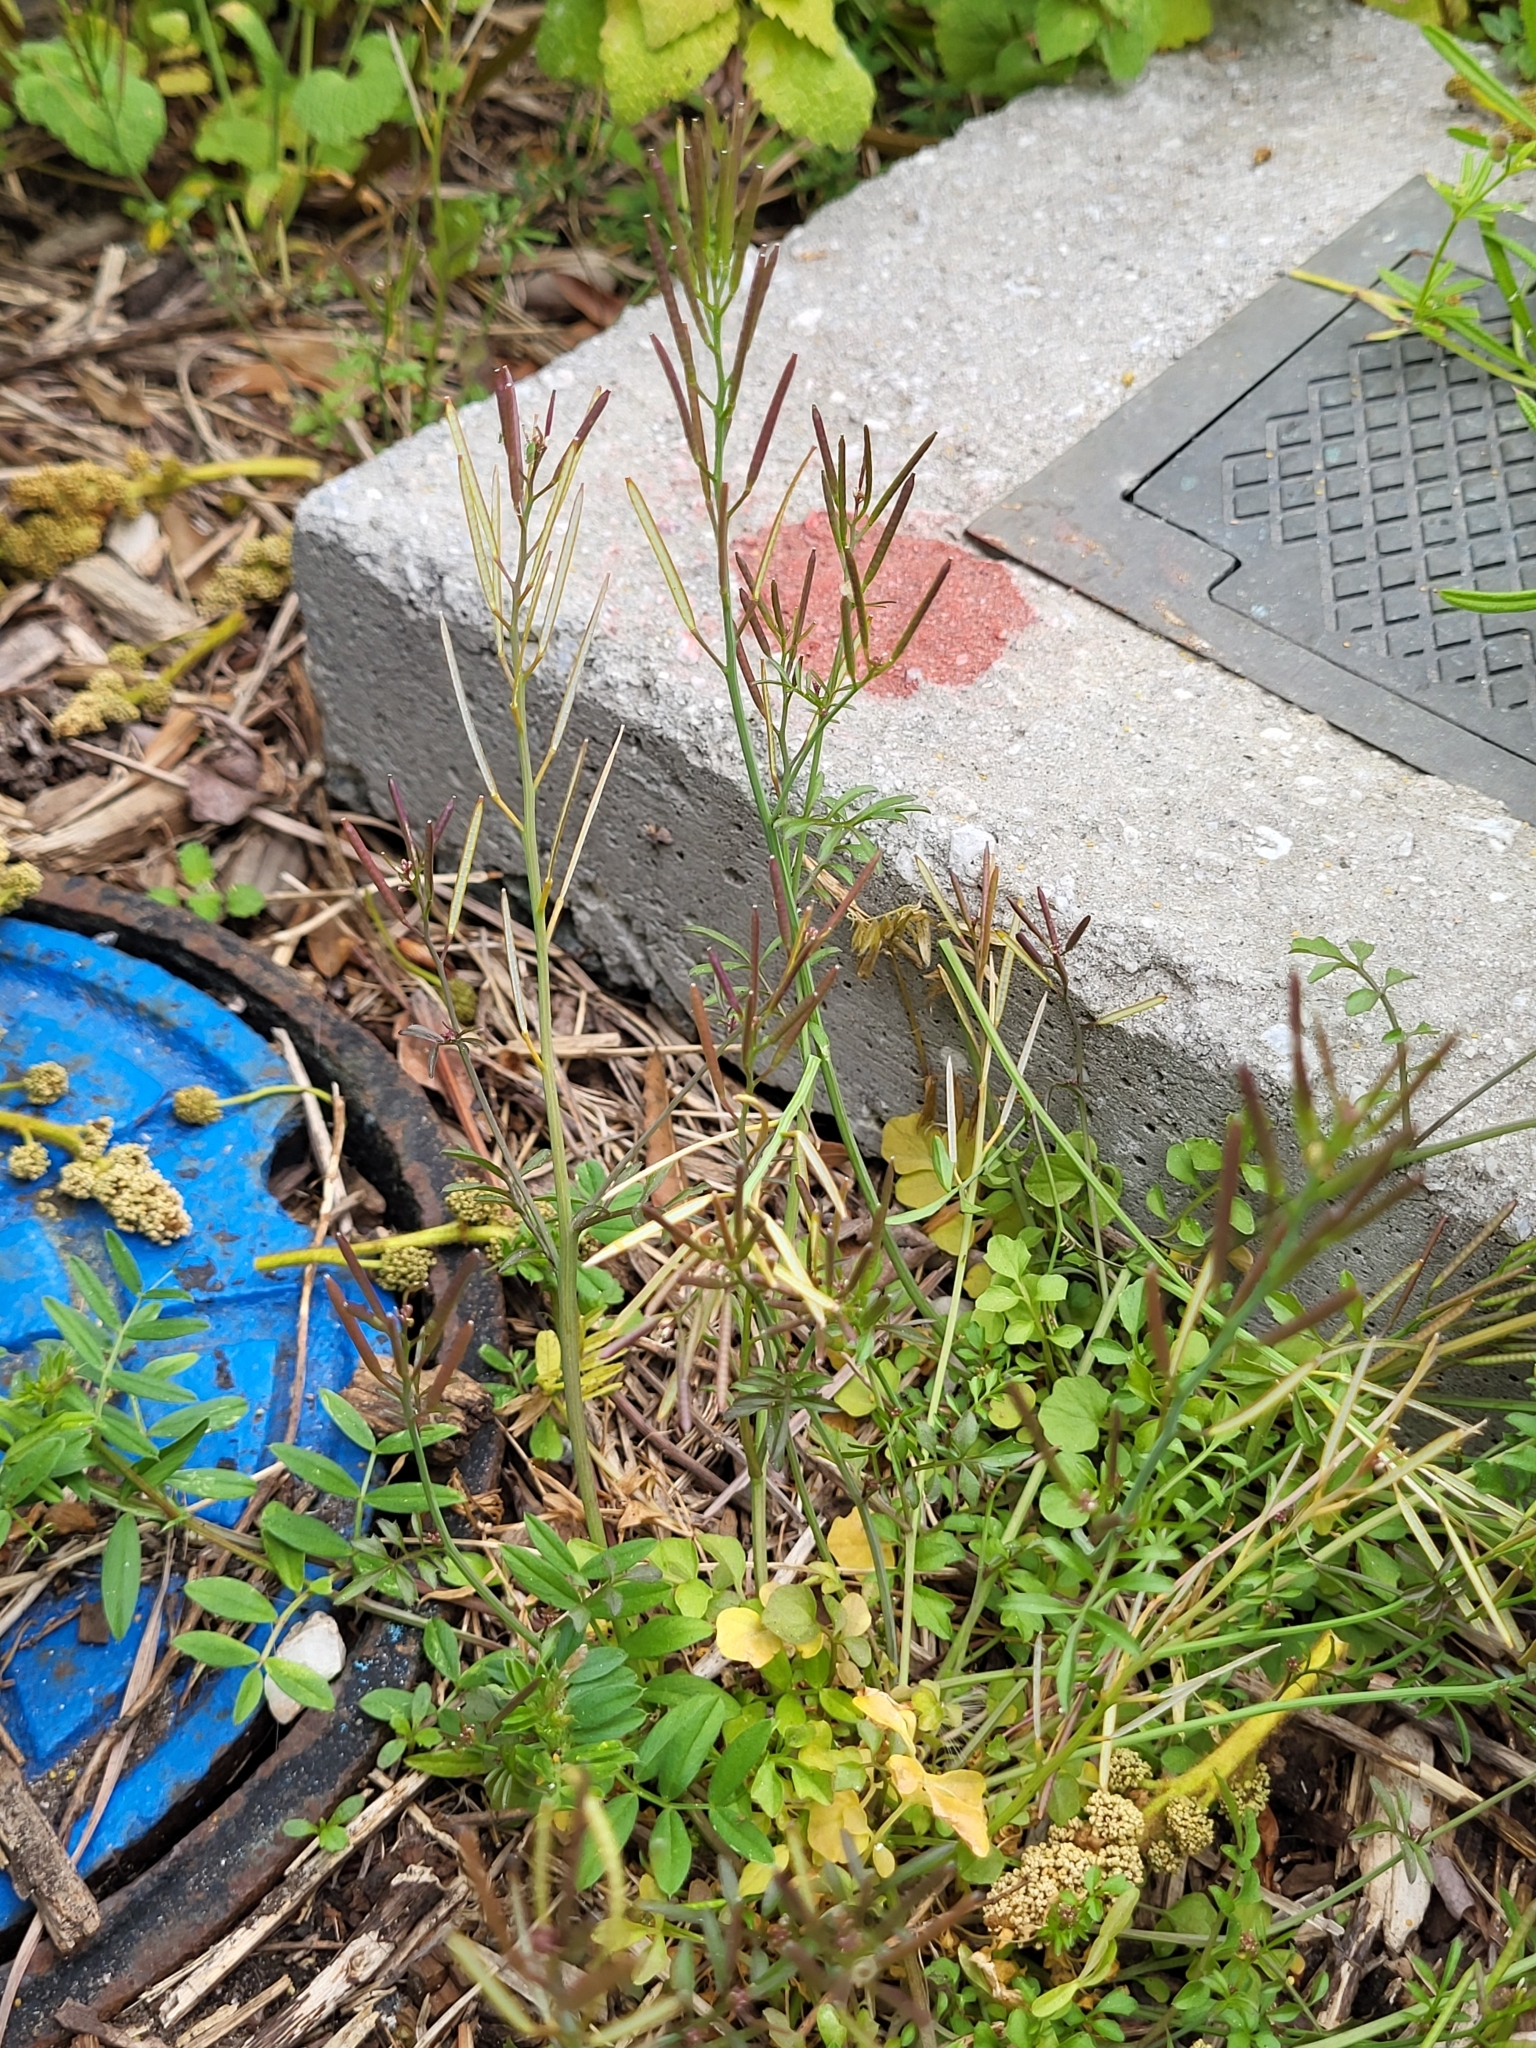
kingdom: Plantae
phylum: Tracheophyta
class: Magnoliopsida
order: Brassicales
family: Brassicaceae
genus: Cardamine
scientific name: Cardamine hirsuta
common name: Hairy bittercress
